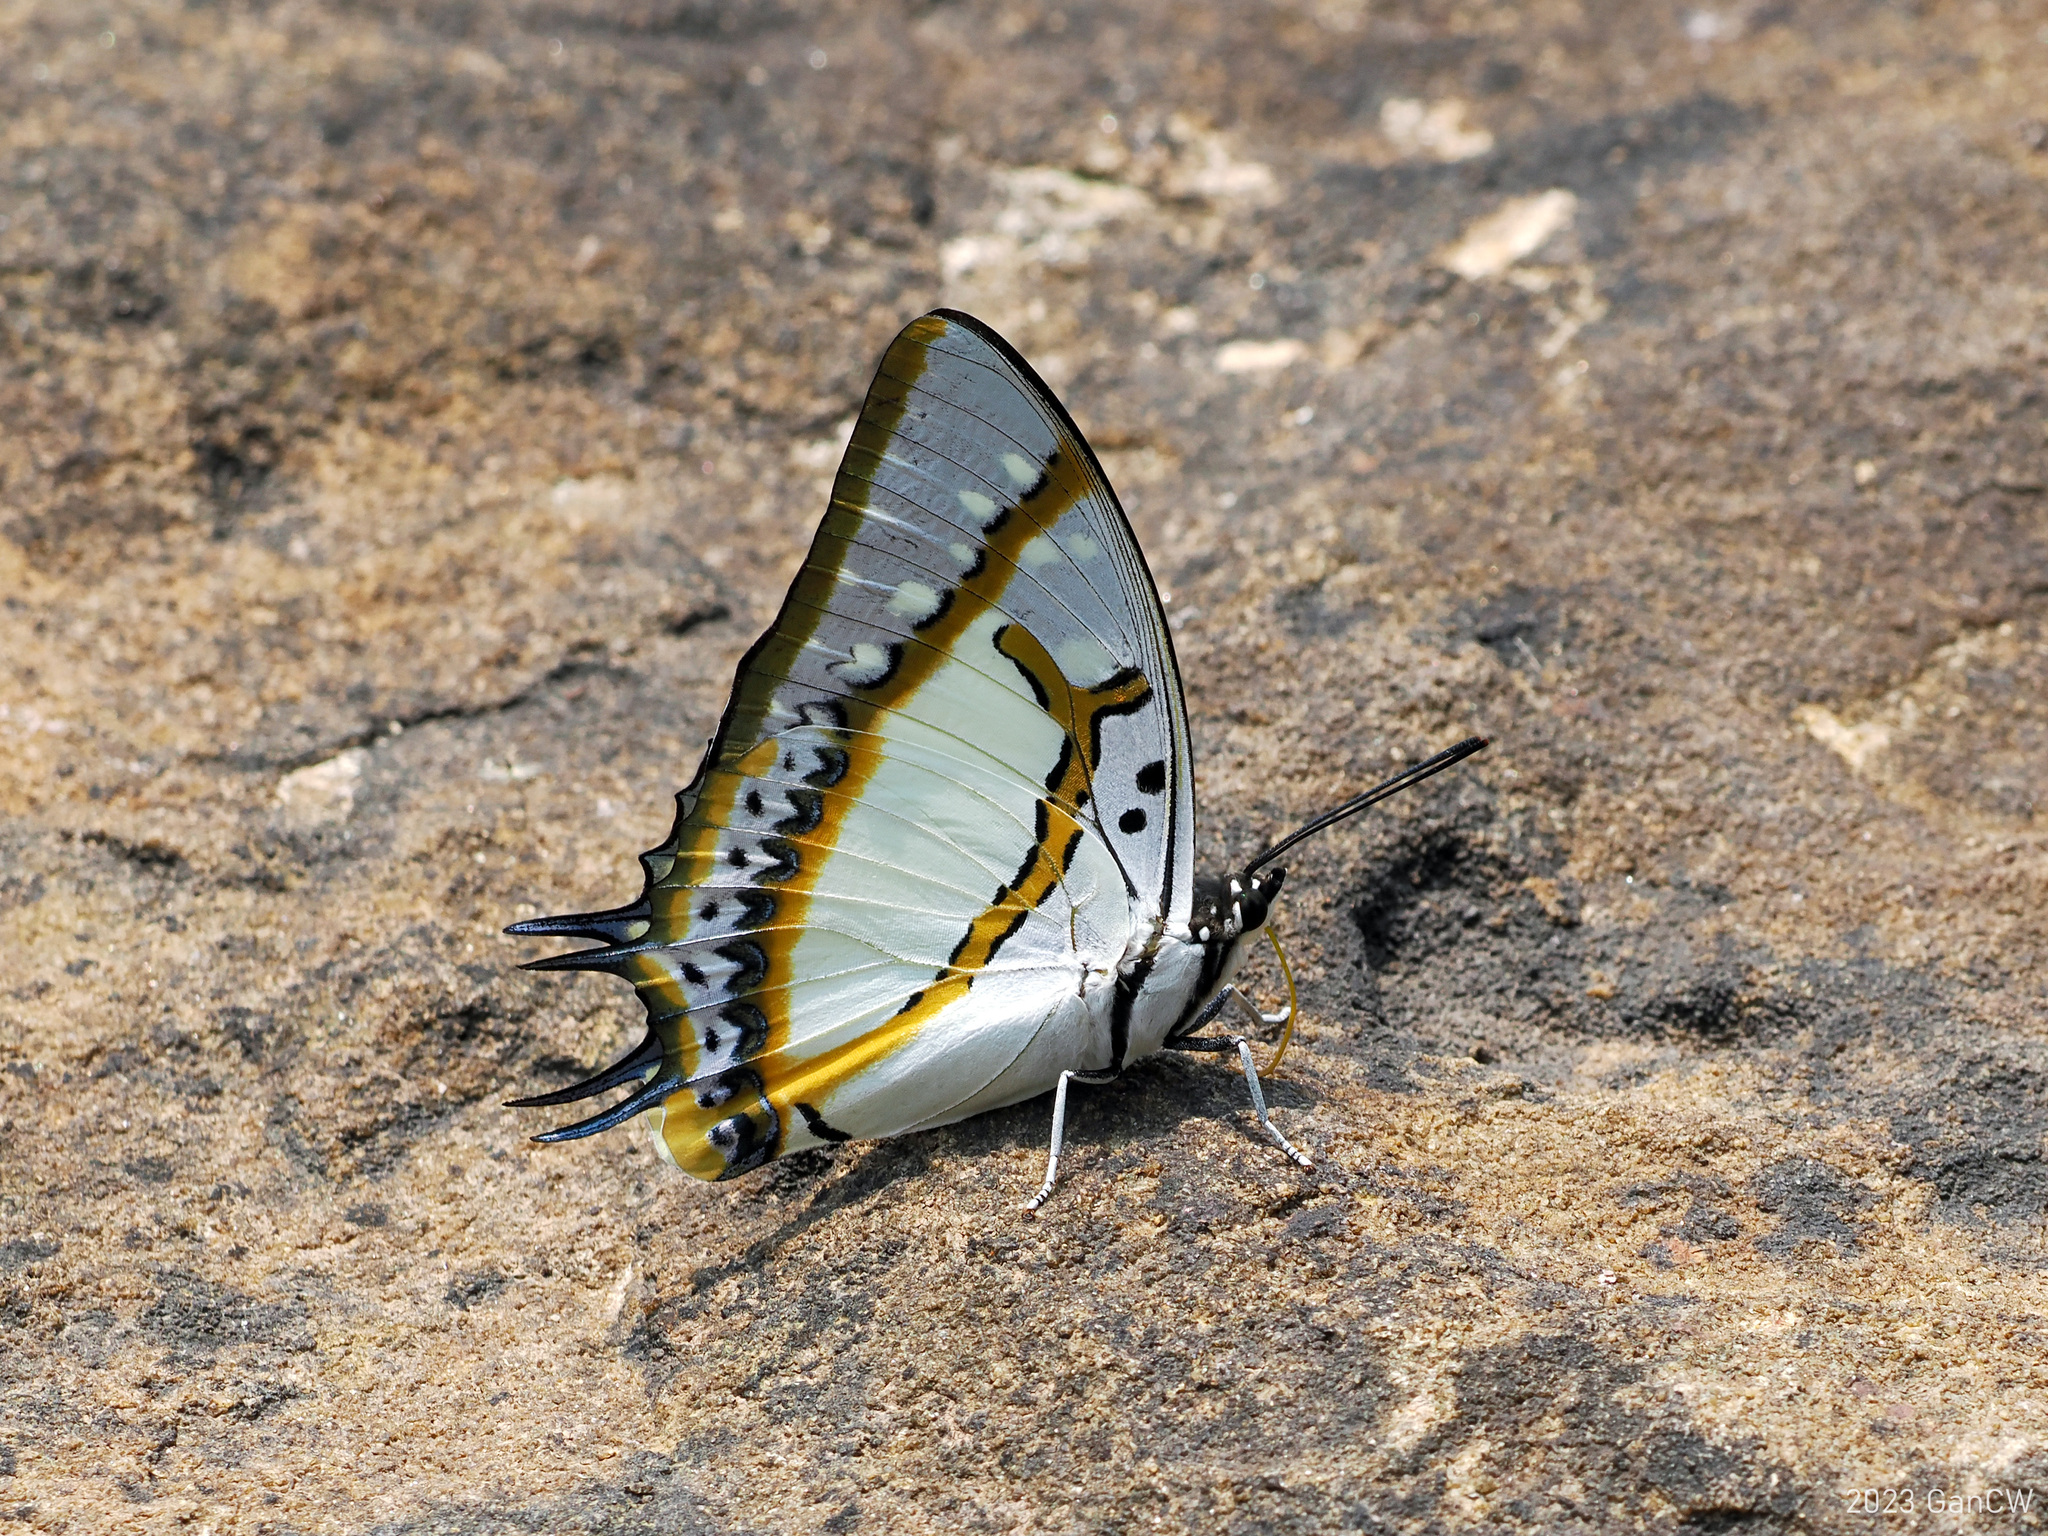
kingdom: Animalia
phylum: Arthropoda
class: Insecta
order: Lepidoptera
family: Nymphalidae
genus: Polyura
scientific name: Polyura eudamippus
